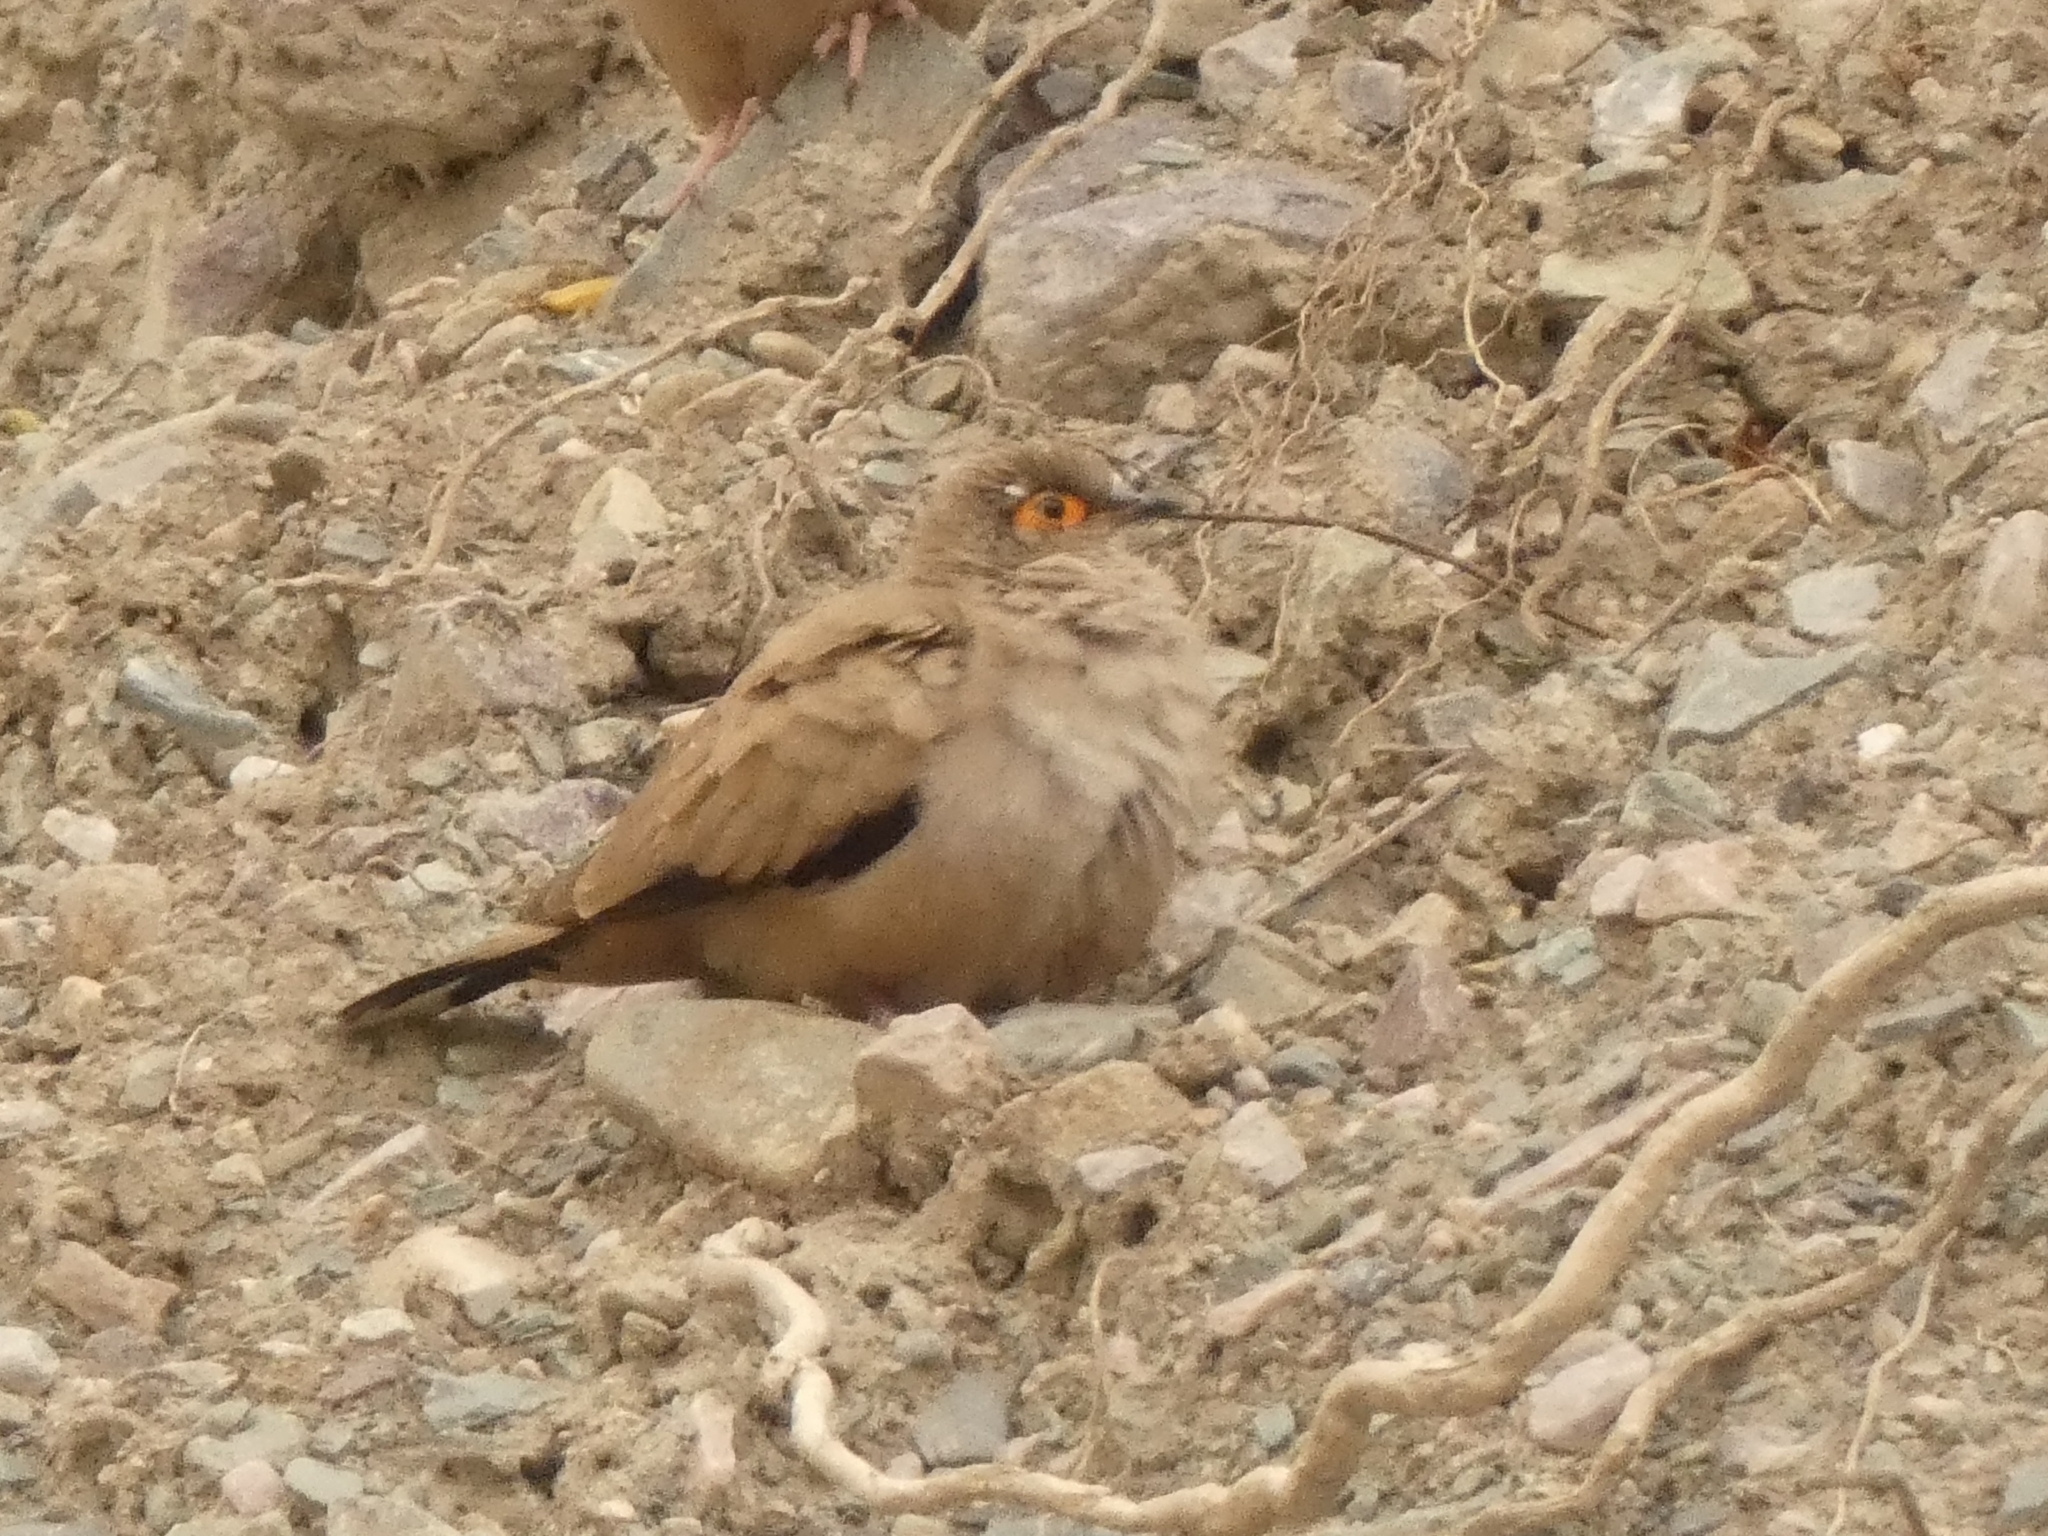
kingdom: Animalia
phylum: Chordata
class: Aves
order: Columbiformes
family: Columbidae
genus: Metriopelia
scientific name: Metriopelia morenoi
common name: Moreno's ground dove
